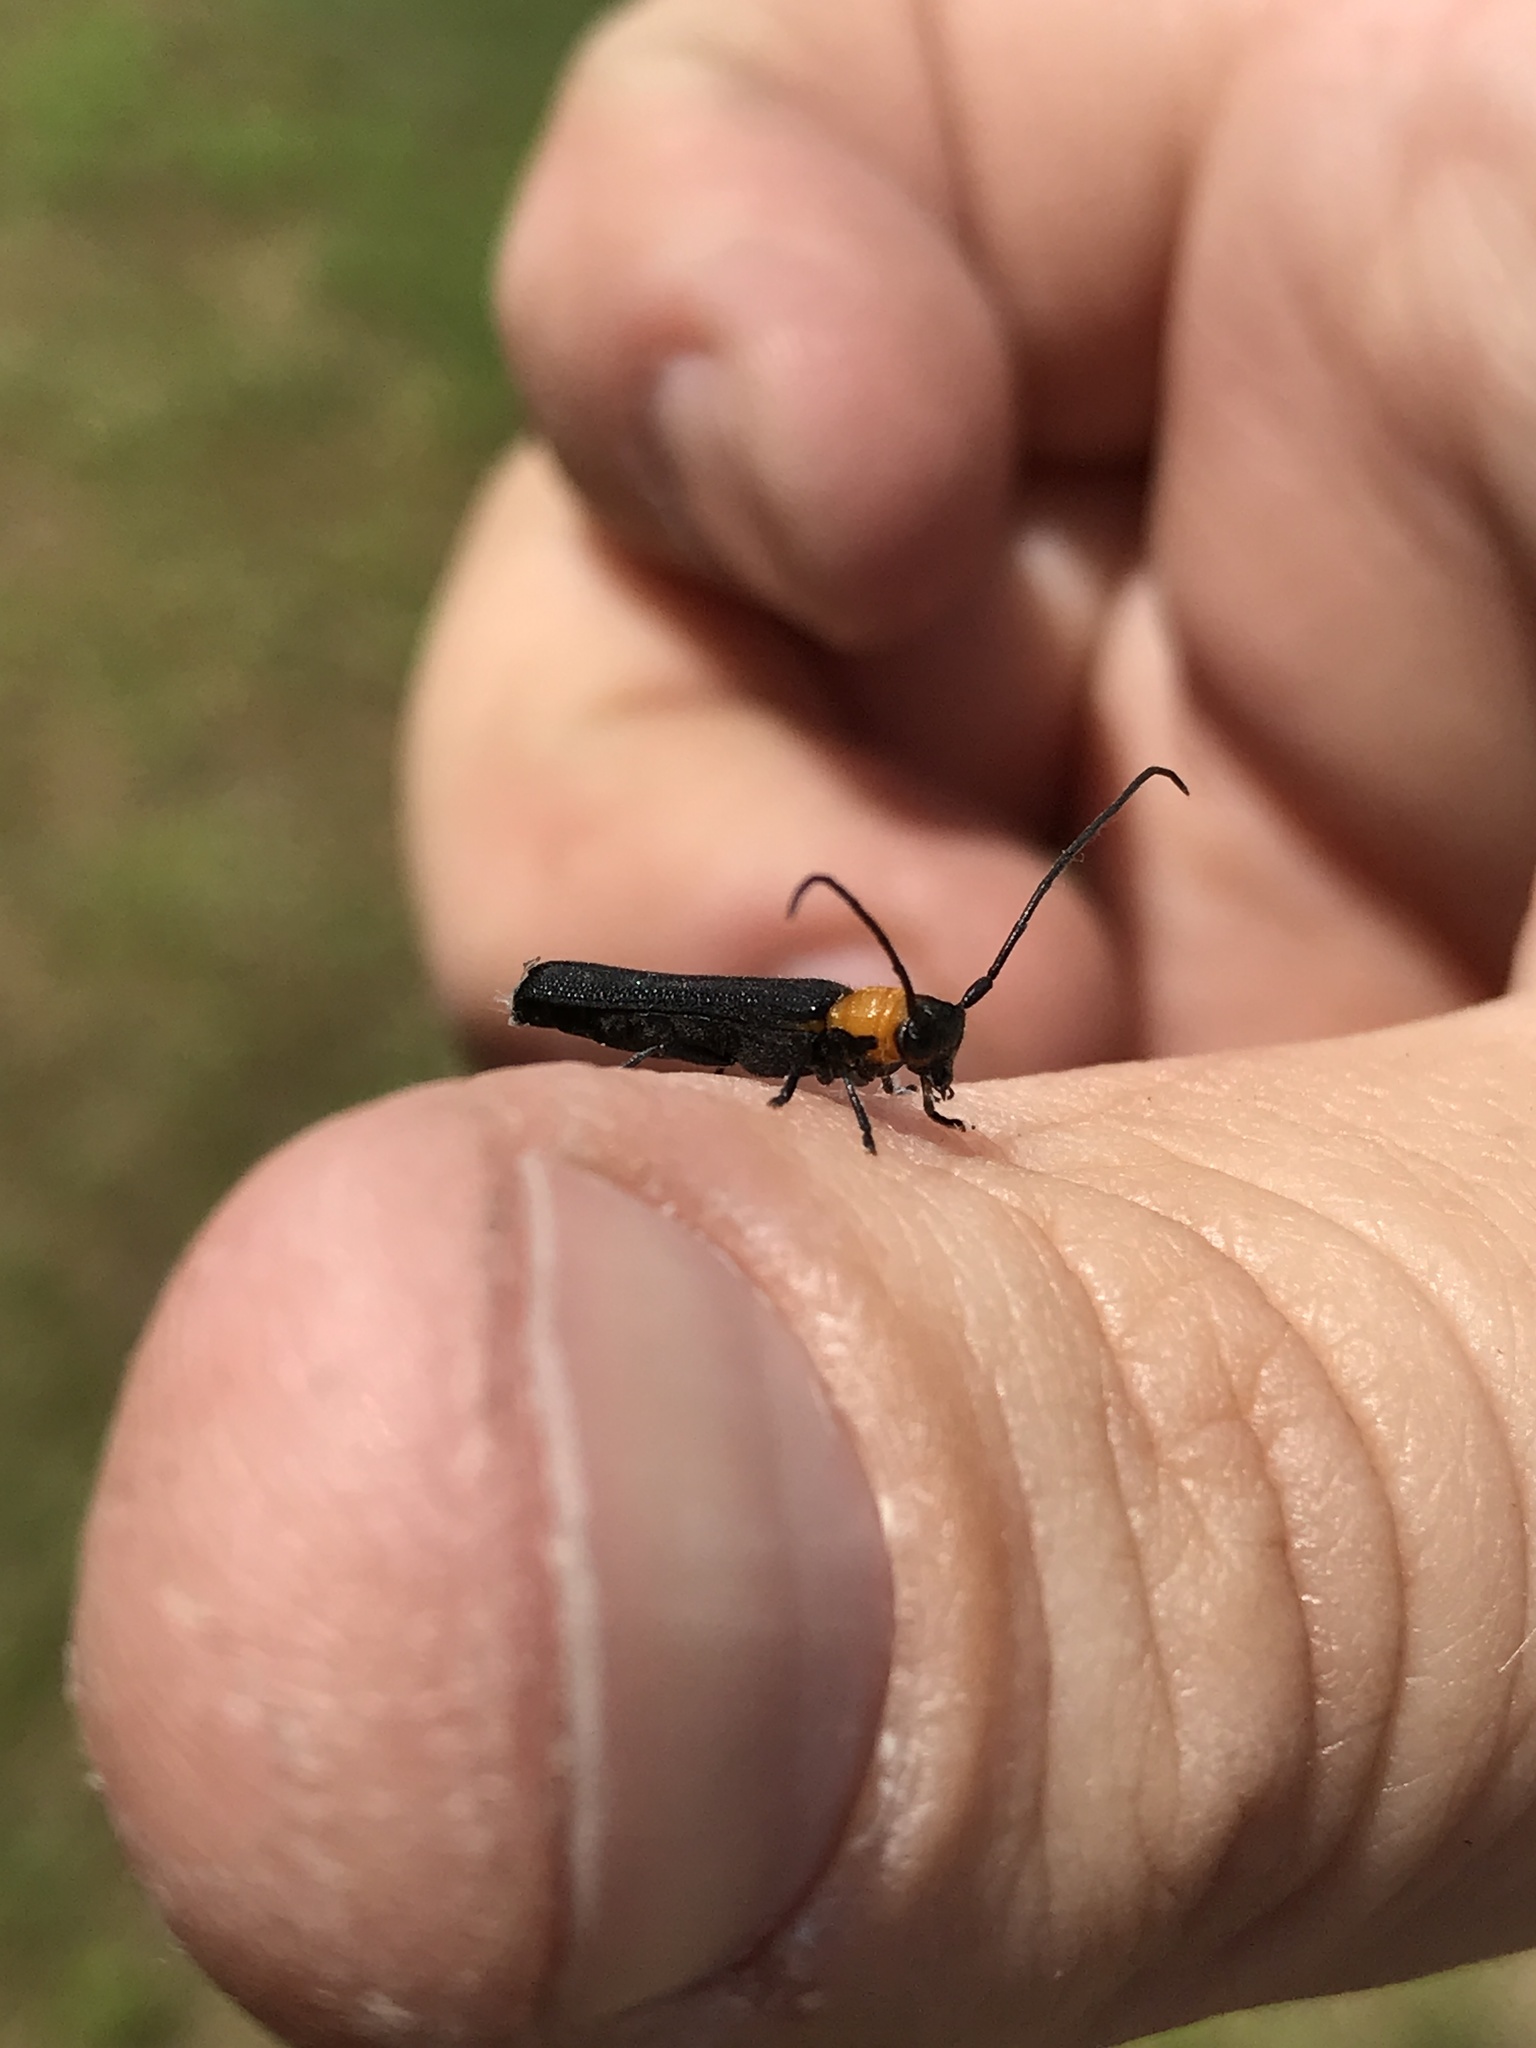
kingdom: Animalia
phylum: Arthropoda
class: Insecta
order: Coleoptera
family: Cerambycidae
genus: Oberea
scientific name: Oberea affinis
